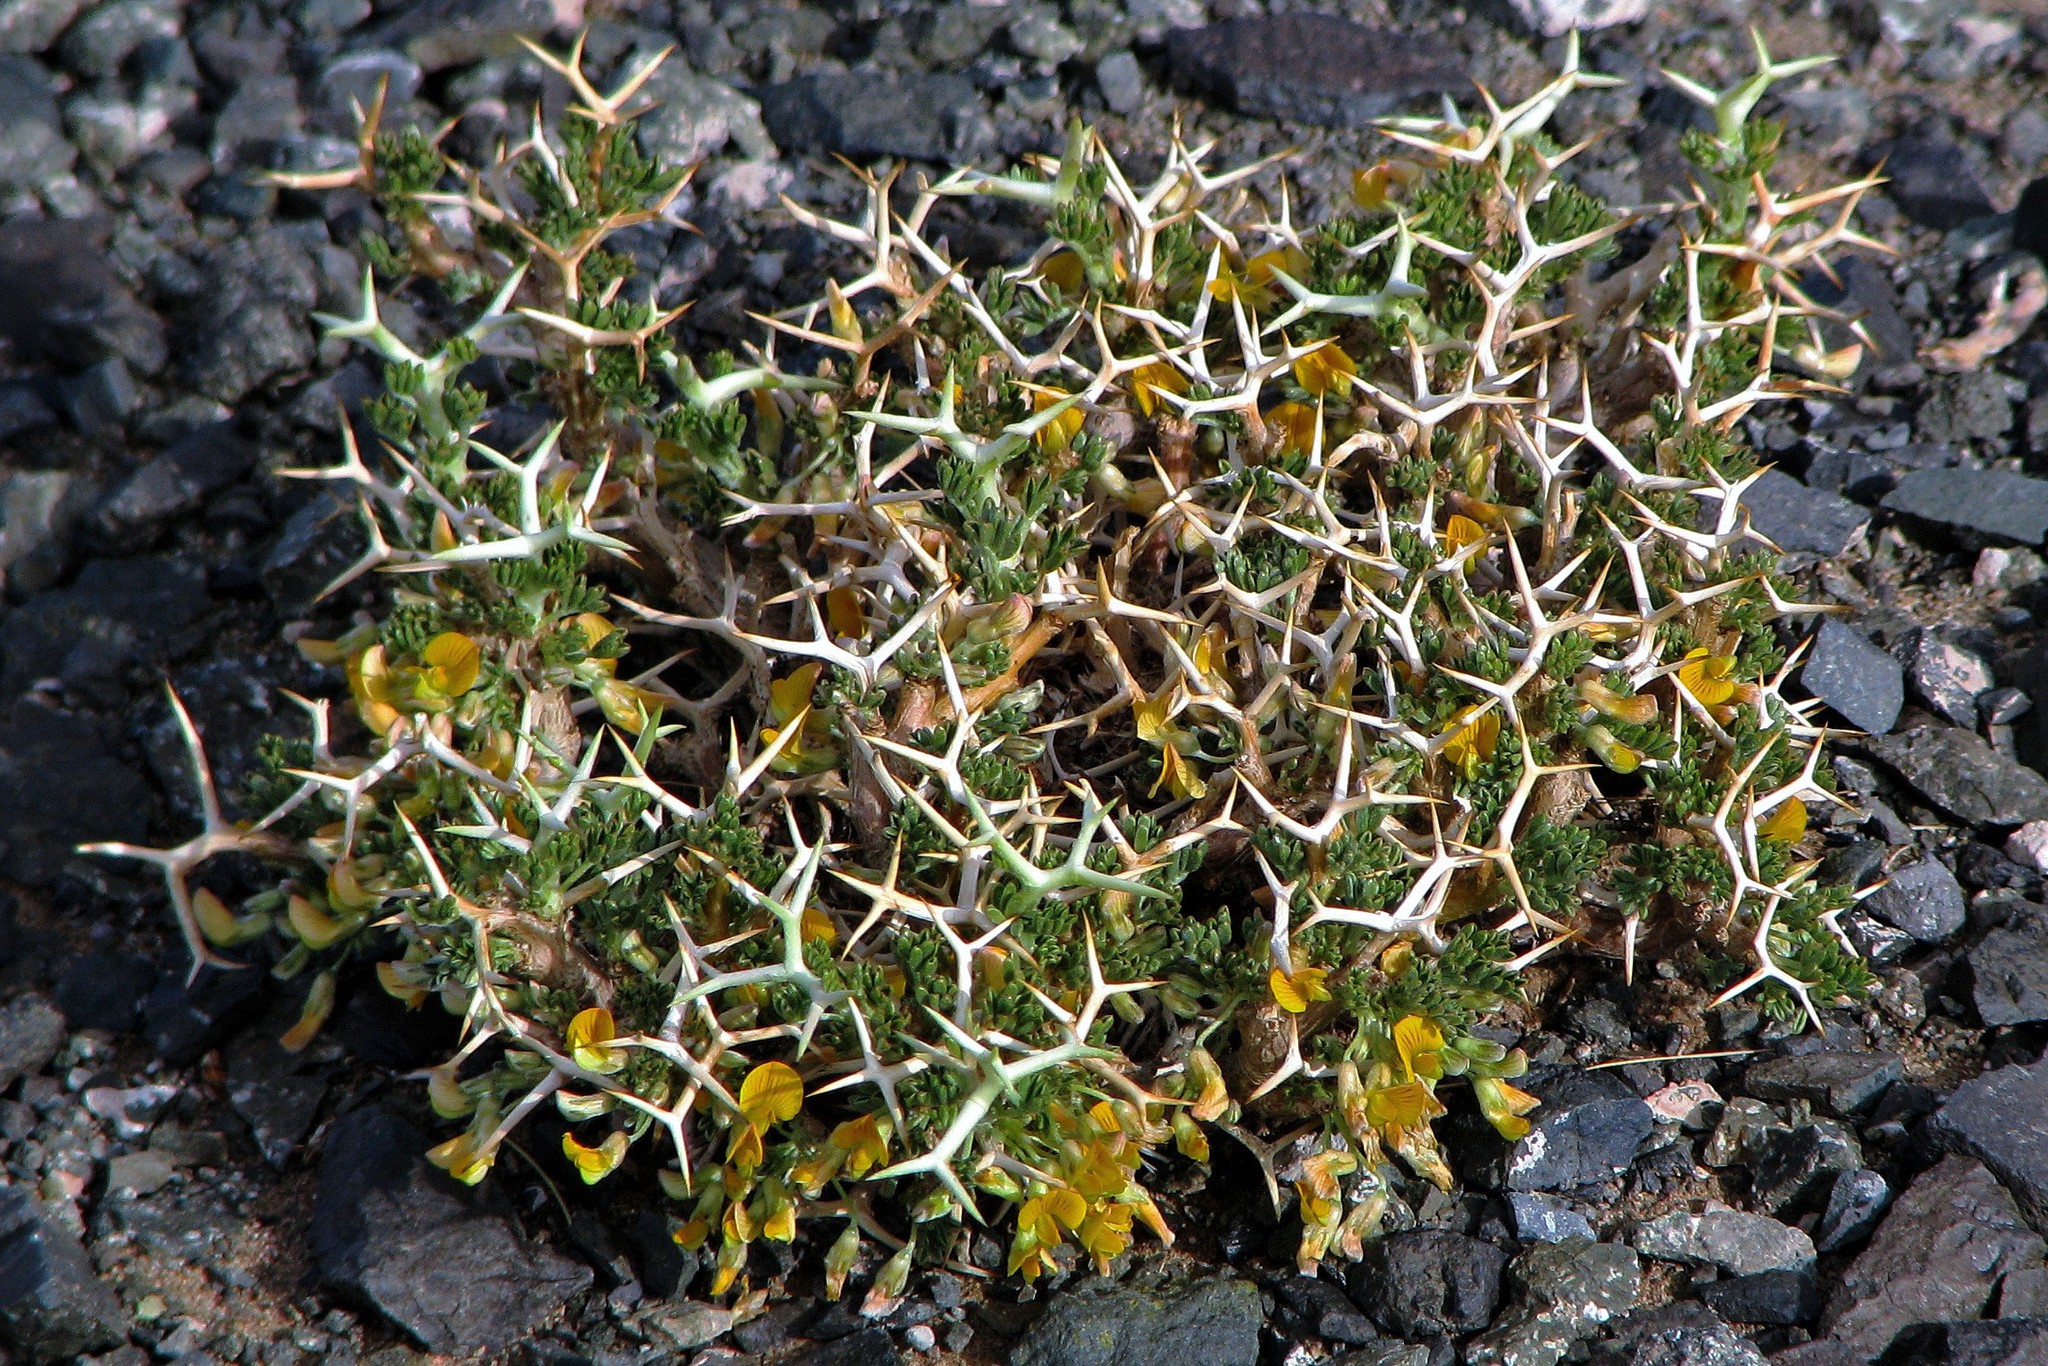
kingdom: Plantae
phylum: Tracheophyta
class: Magnoliopsida
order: Fabales
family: Fabaceae
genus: Adesmia
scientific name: Adesmia horrida
